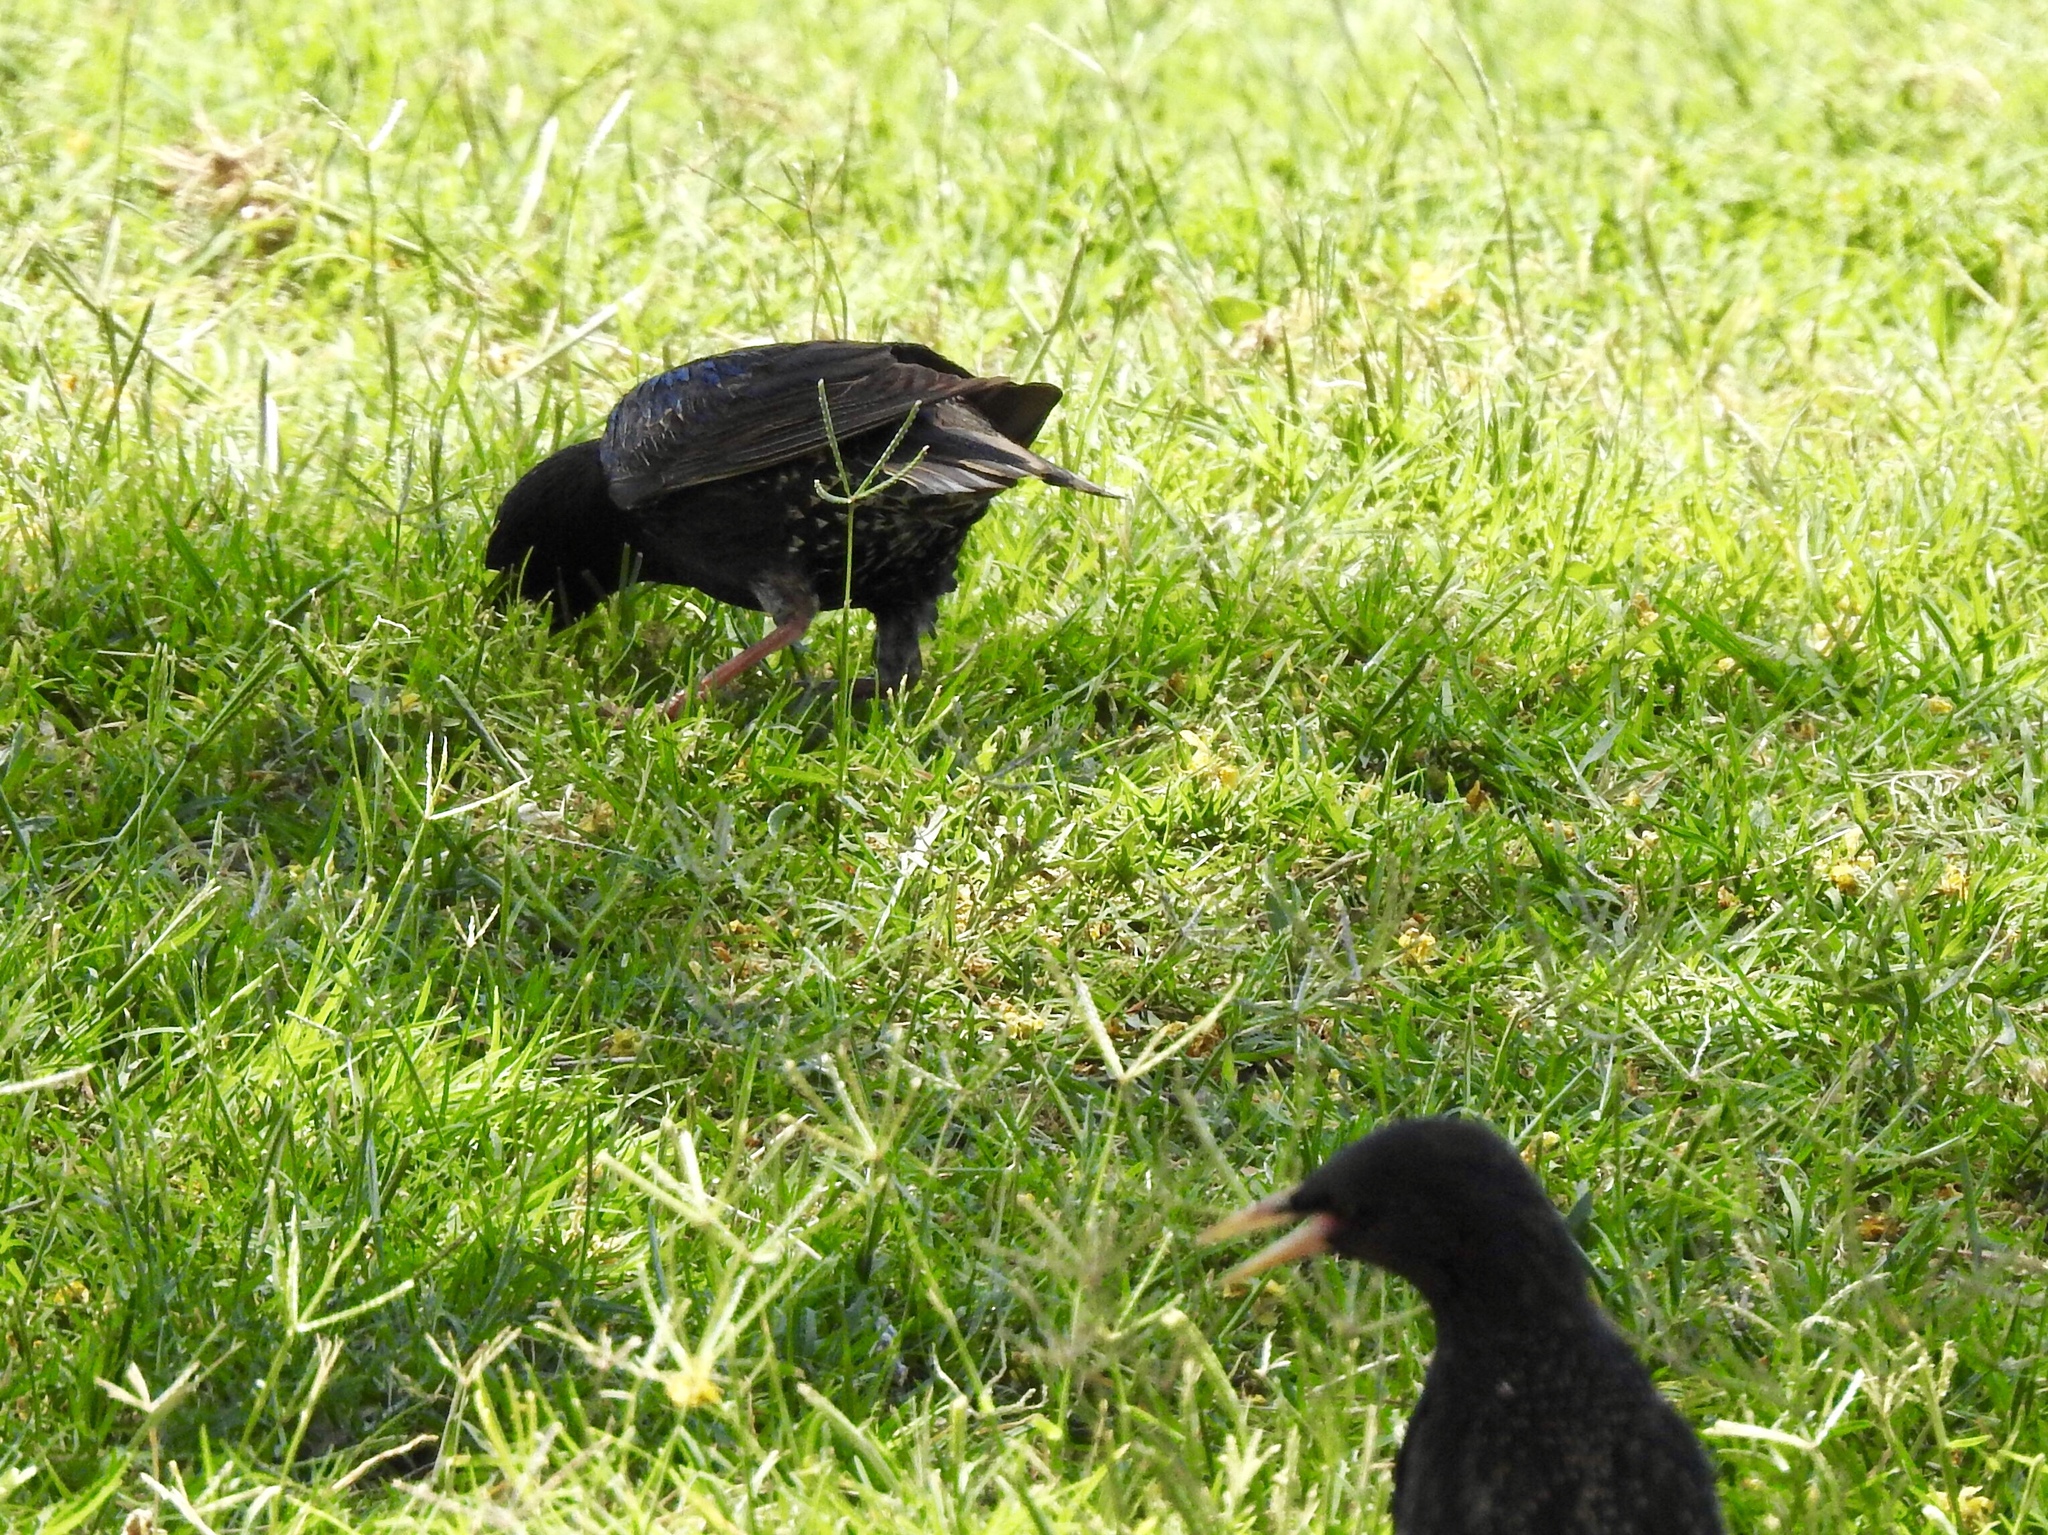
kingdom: Animalia
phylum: Chordata
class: Aves
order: Passeriformes
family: Sturnidae
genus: Sturnus
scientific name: Sturnus vulgaris
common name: Common starling
